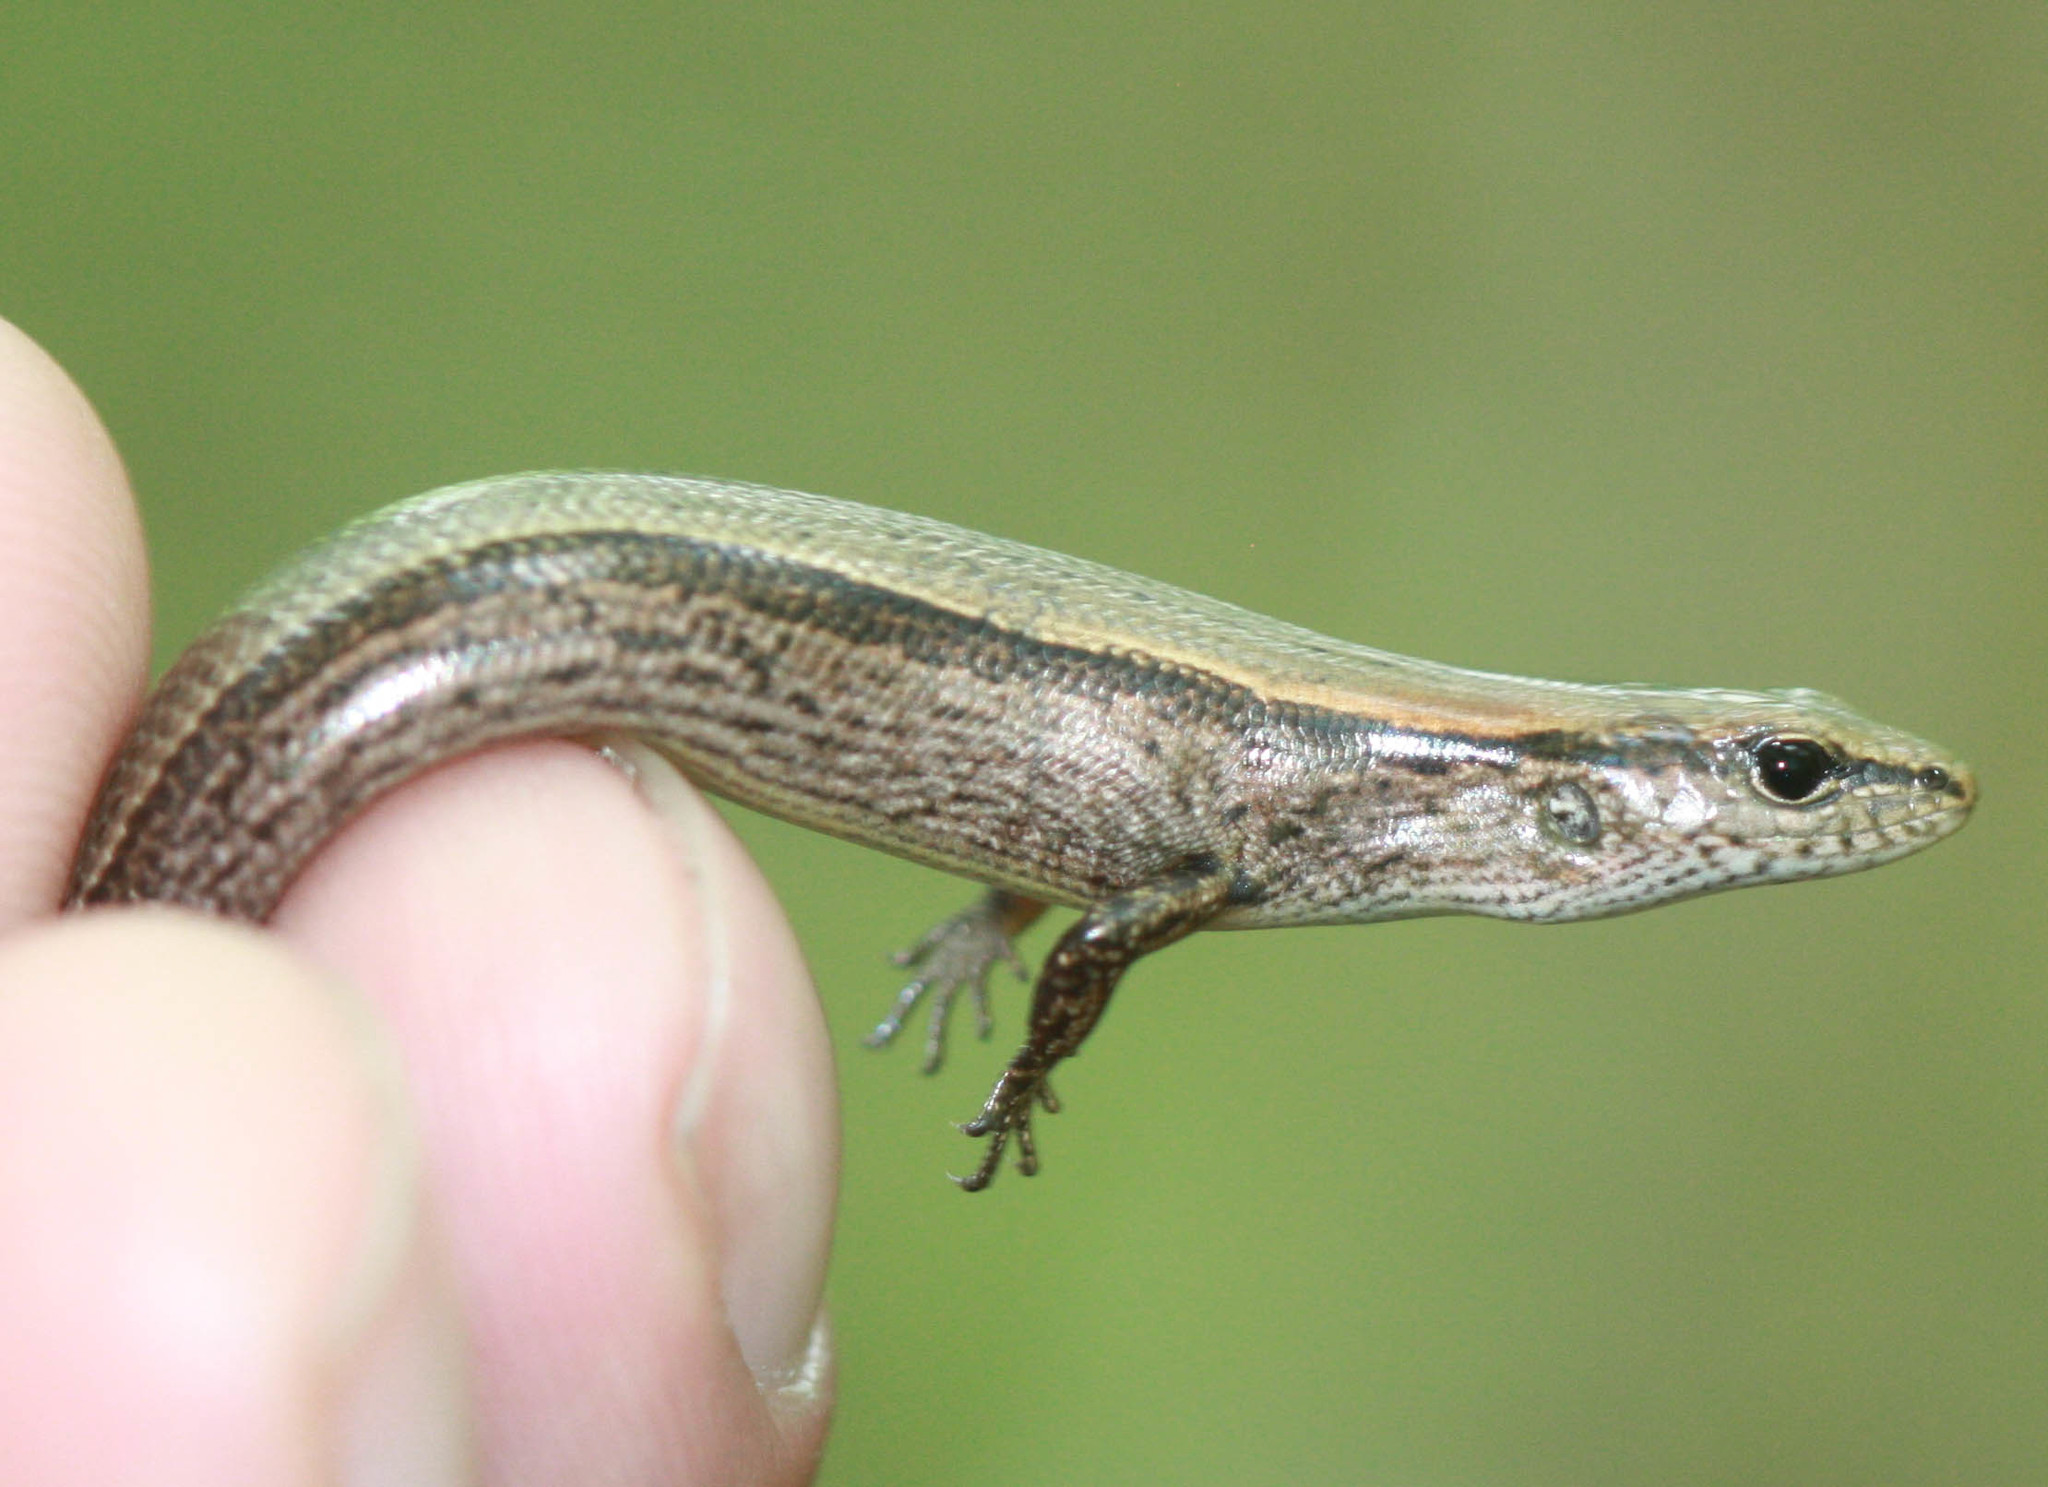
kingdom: Animalia
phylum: Chordata
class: Squamata
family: Scincidae
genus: Scincella
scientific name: Scincella lateralis
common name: Ground skink
